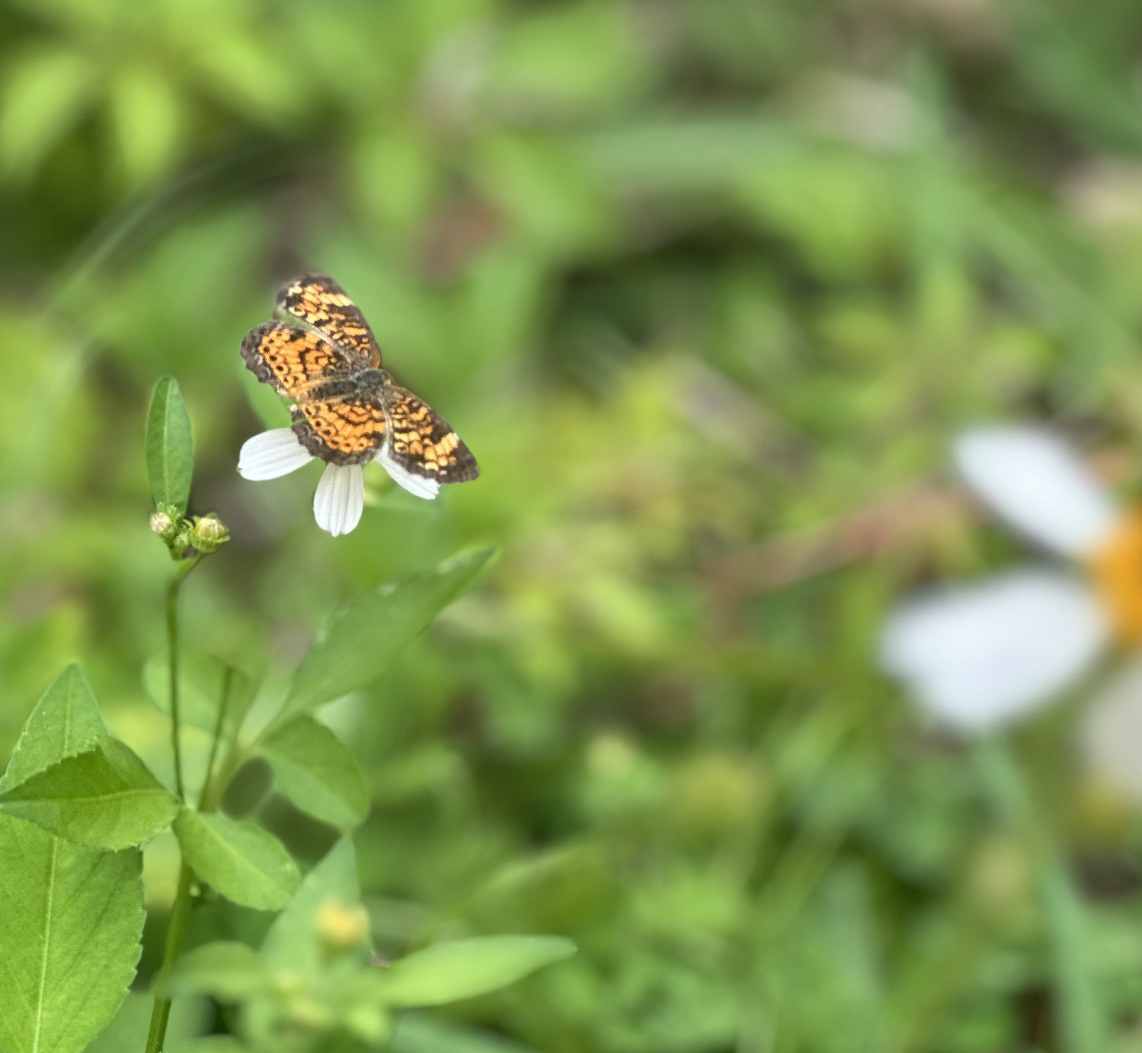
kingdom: Animalia
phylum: Arthropoda
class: Insecta
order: Lepidoptera
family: Nymphalidae
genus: Phyciodes
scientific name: Phyciodes tharos
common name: Pearl crescent
